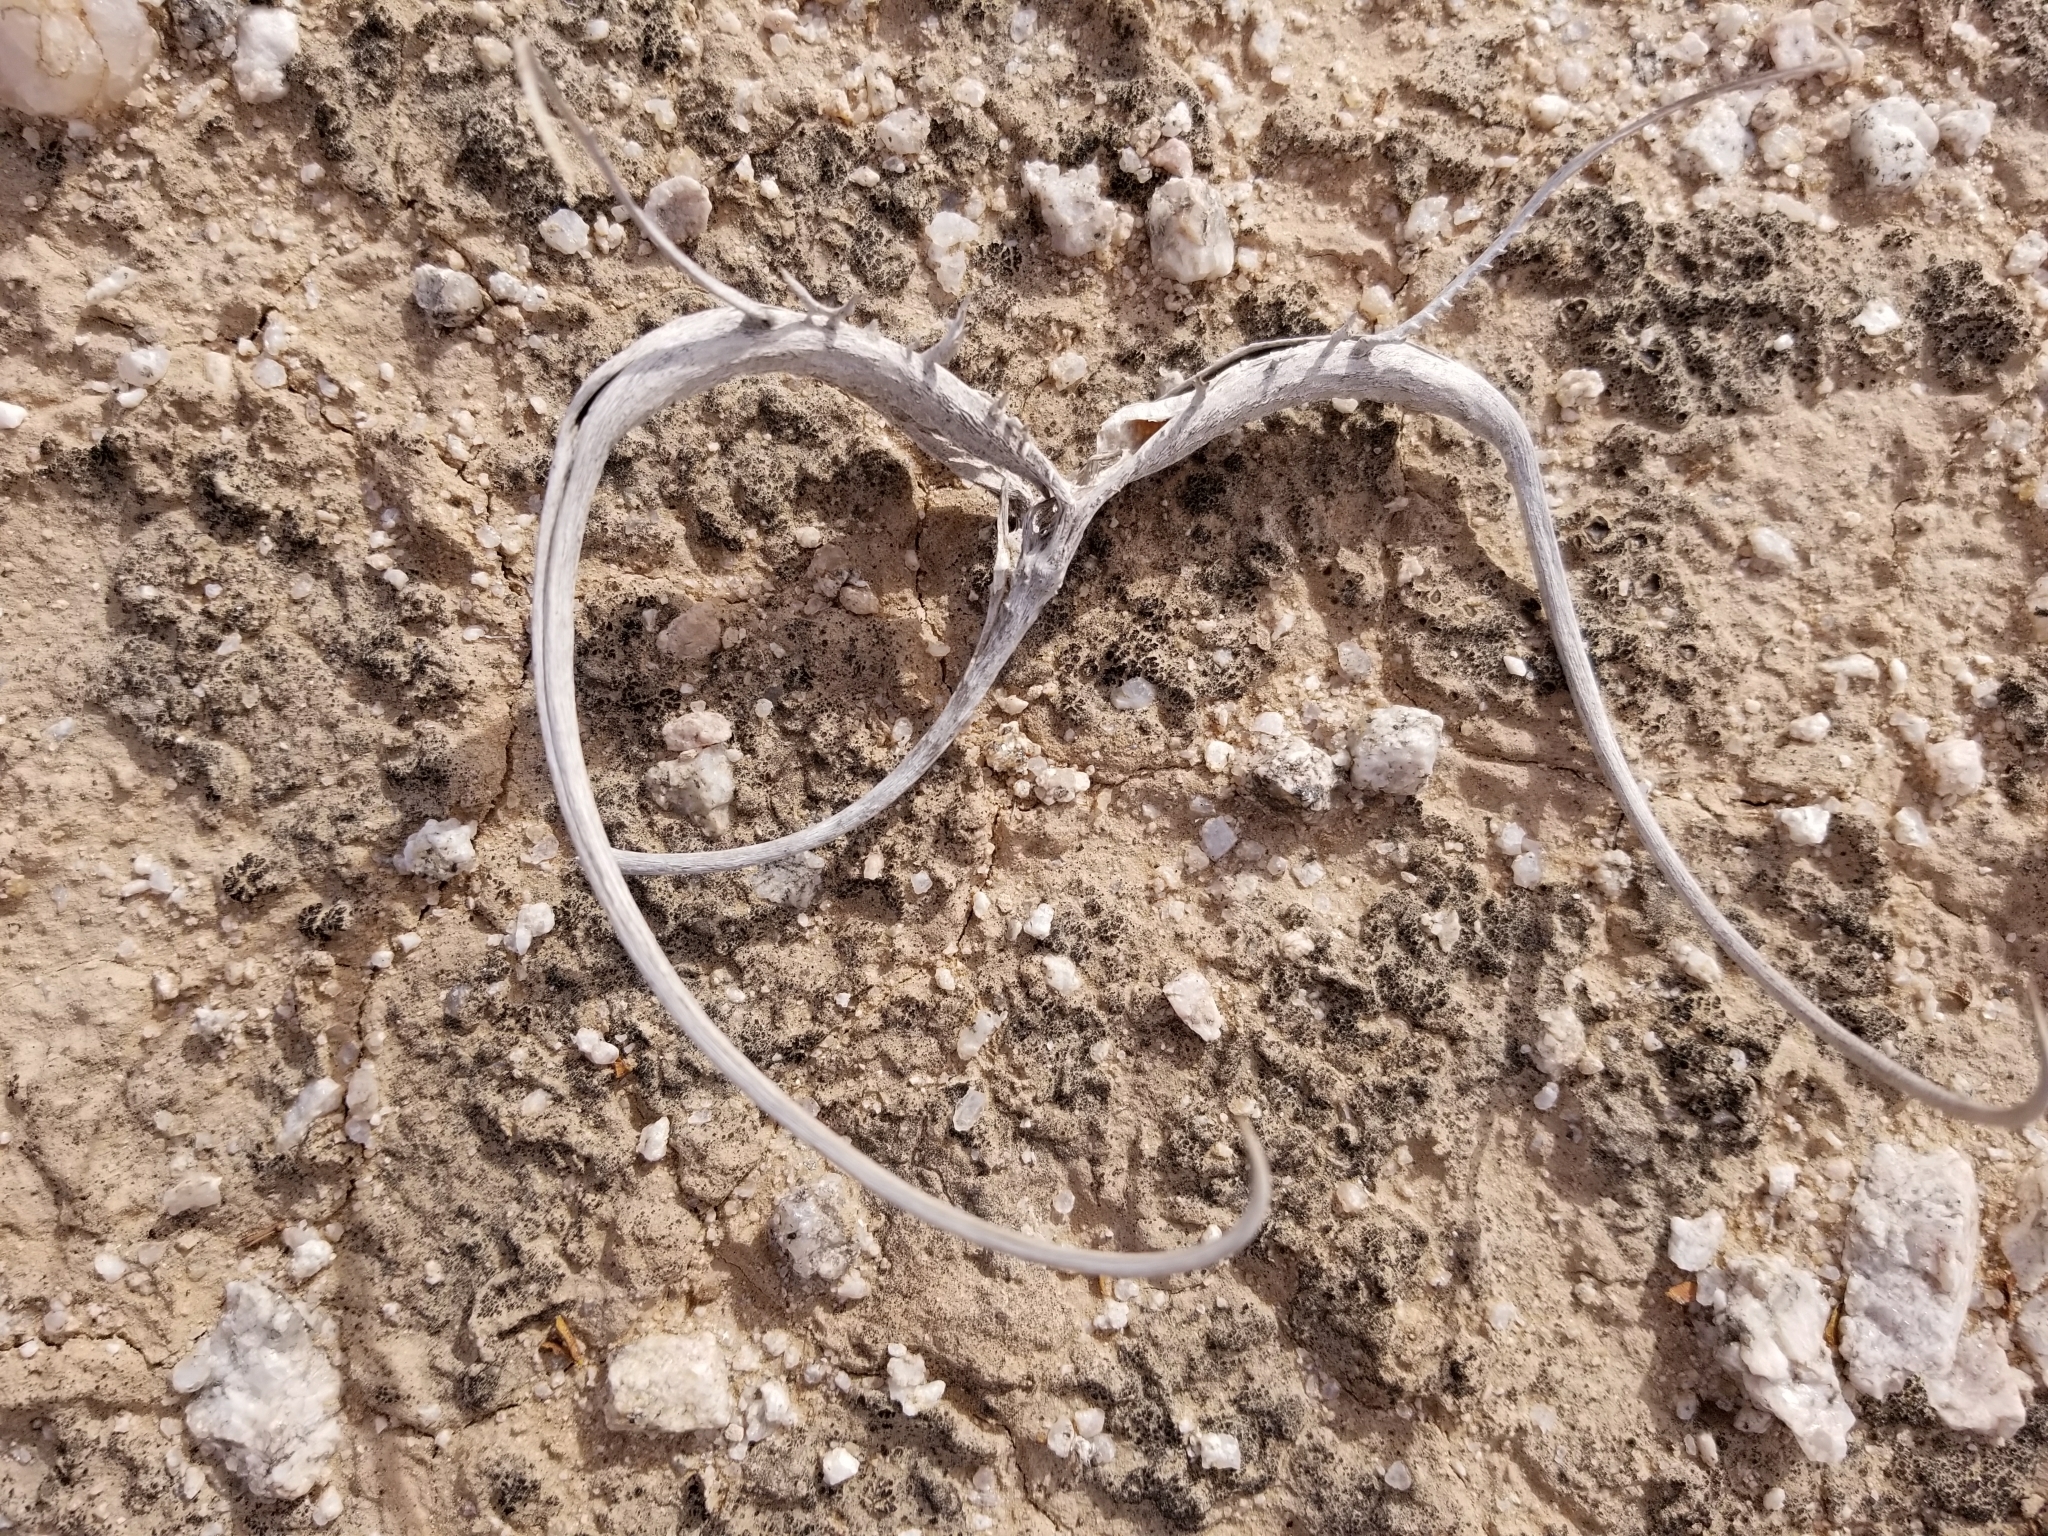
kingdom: Plantae
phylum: Tracheophyta
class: Magnoliopsida
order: Lamiales
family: Martyniaceae
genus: Proboscidea
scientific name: Proboscidea althaeifolia
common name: Desert unicorn-plant
